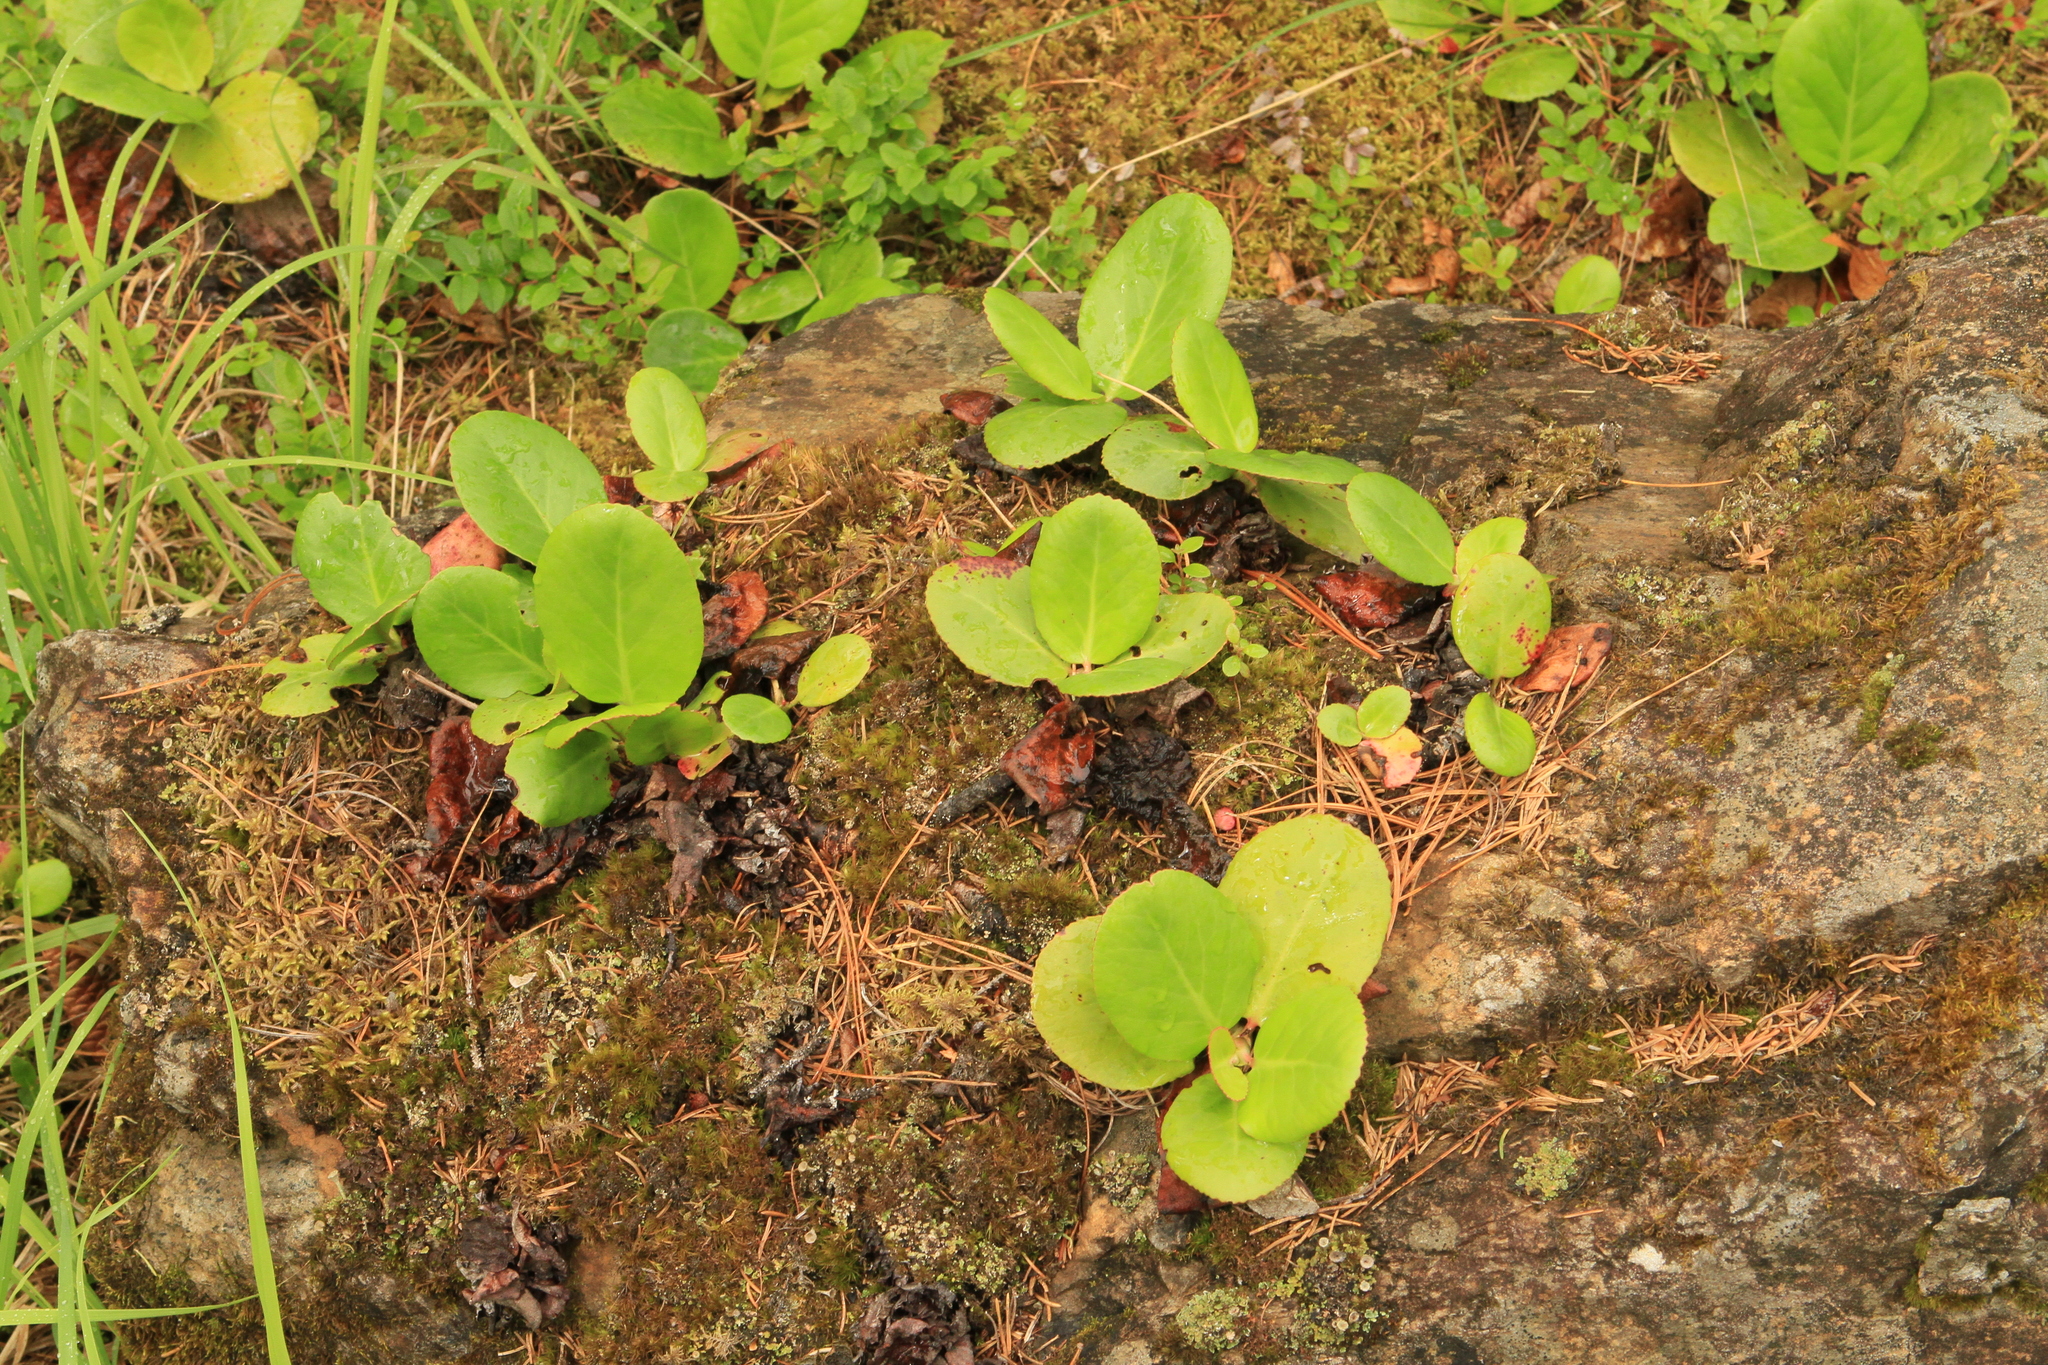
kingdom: Plantae
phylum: Tracheophyta
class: Magnoliopsida
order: Saxifragales
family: Saxifragaceae
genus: Bergenia
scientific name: Bergenia crassifolia
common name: Elephant-ears
